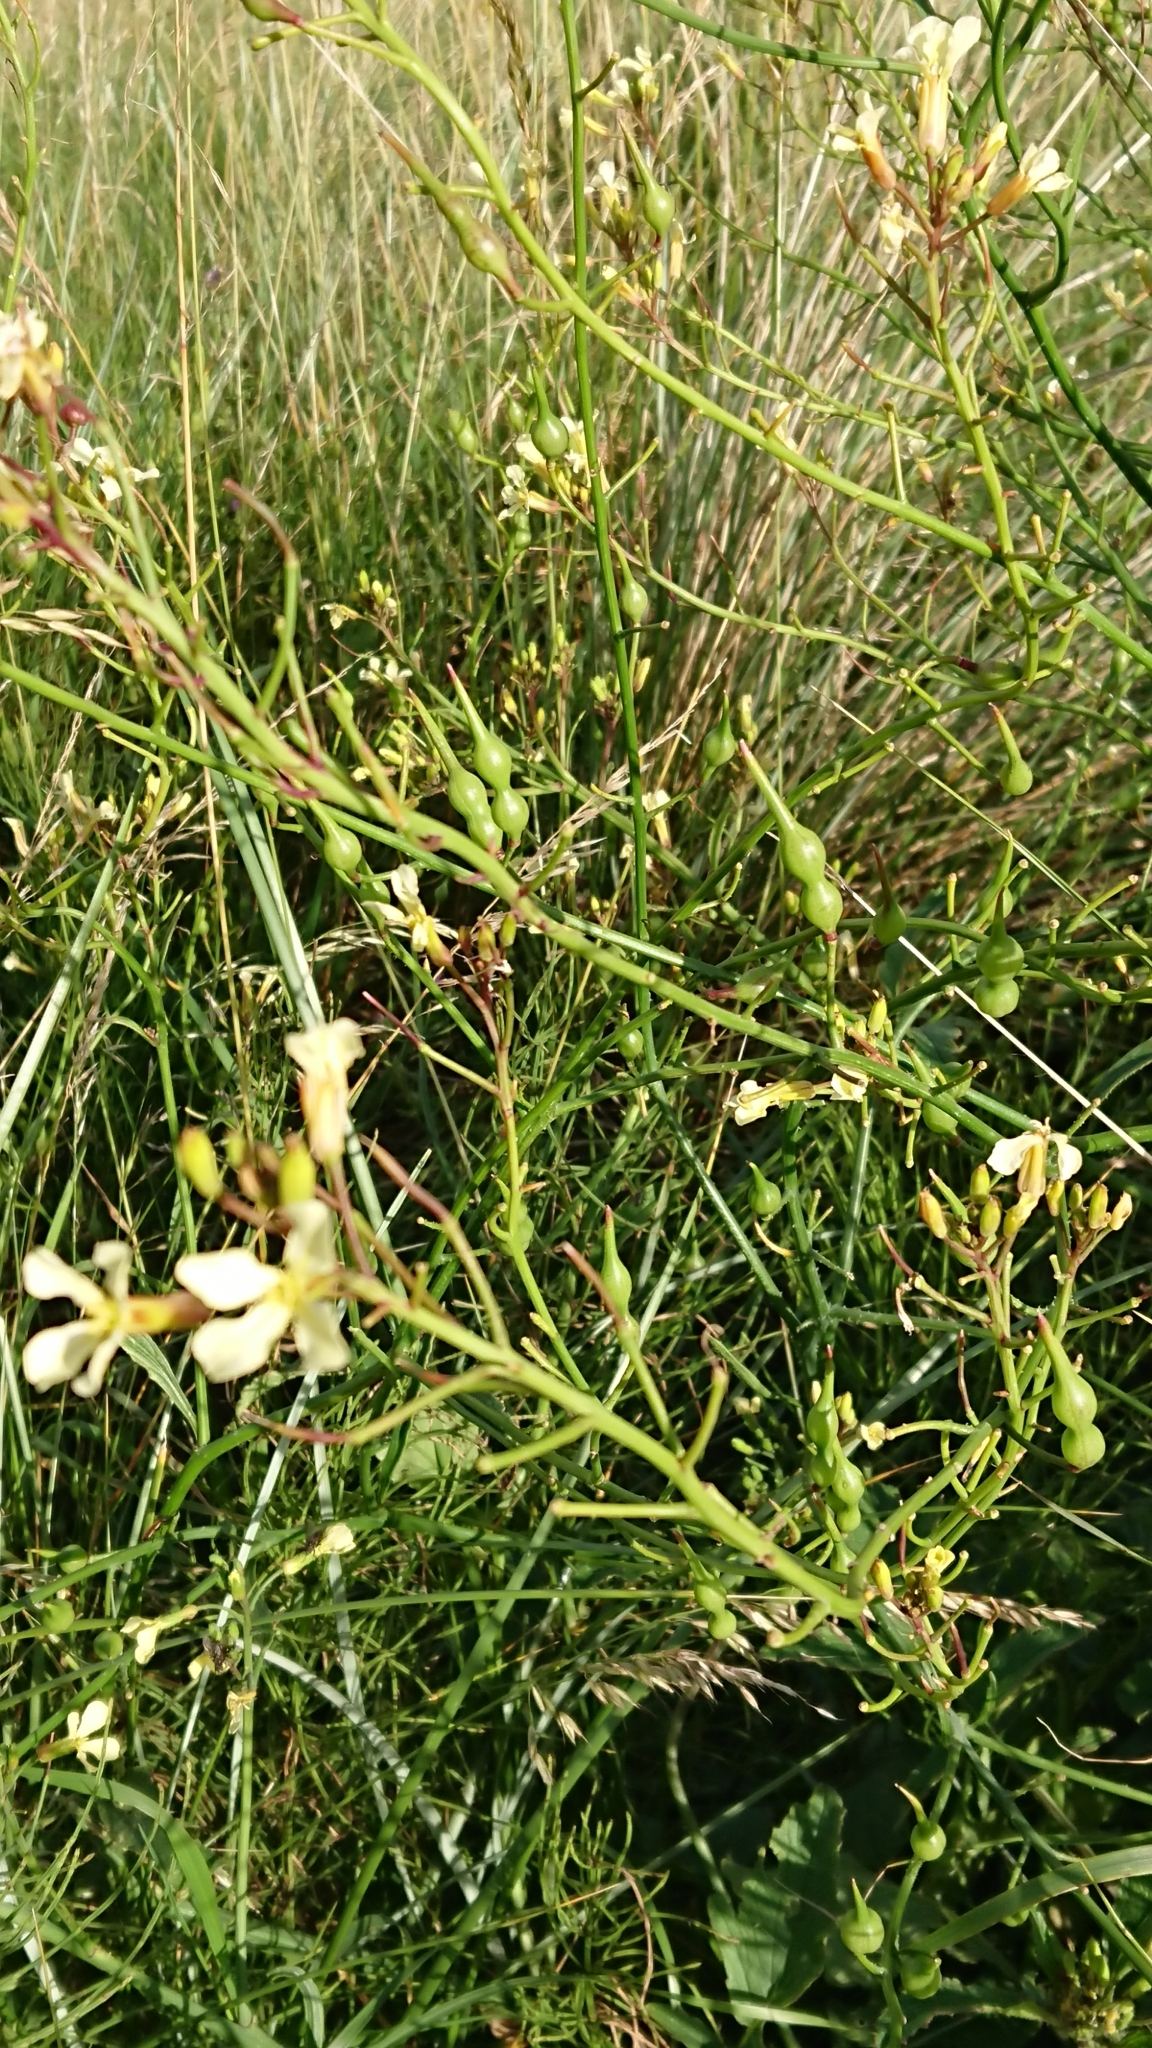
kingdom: Plantae
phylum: Tracheophyta
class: Magnoliopsida
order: Brassicales
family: Brassicaceae
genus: Raphanus
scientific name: Raphanus raphanistrum
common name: Wild radish
